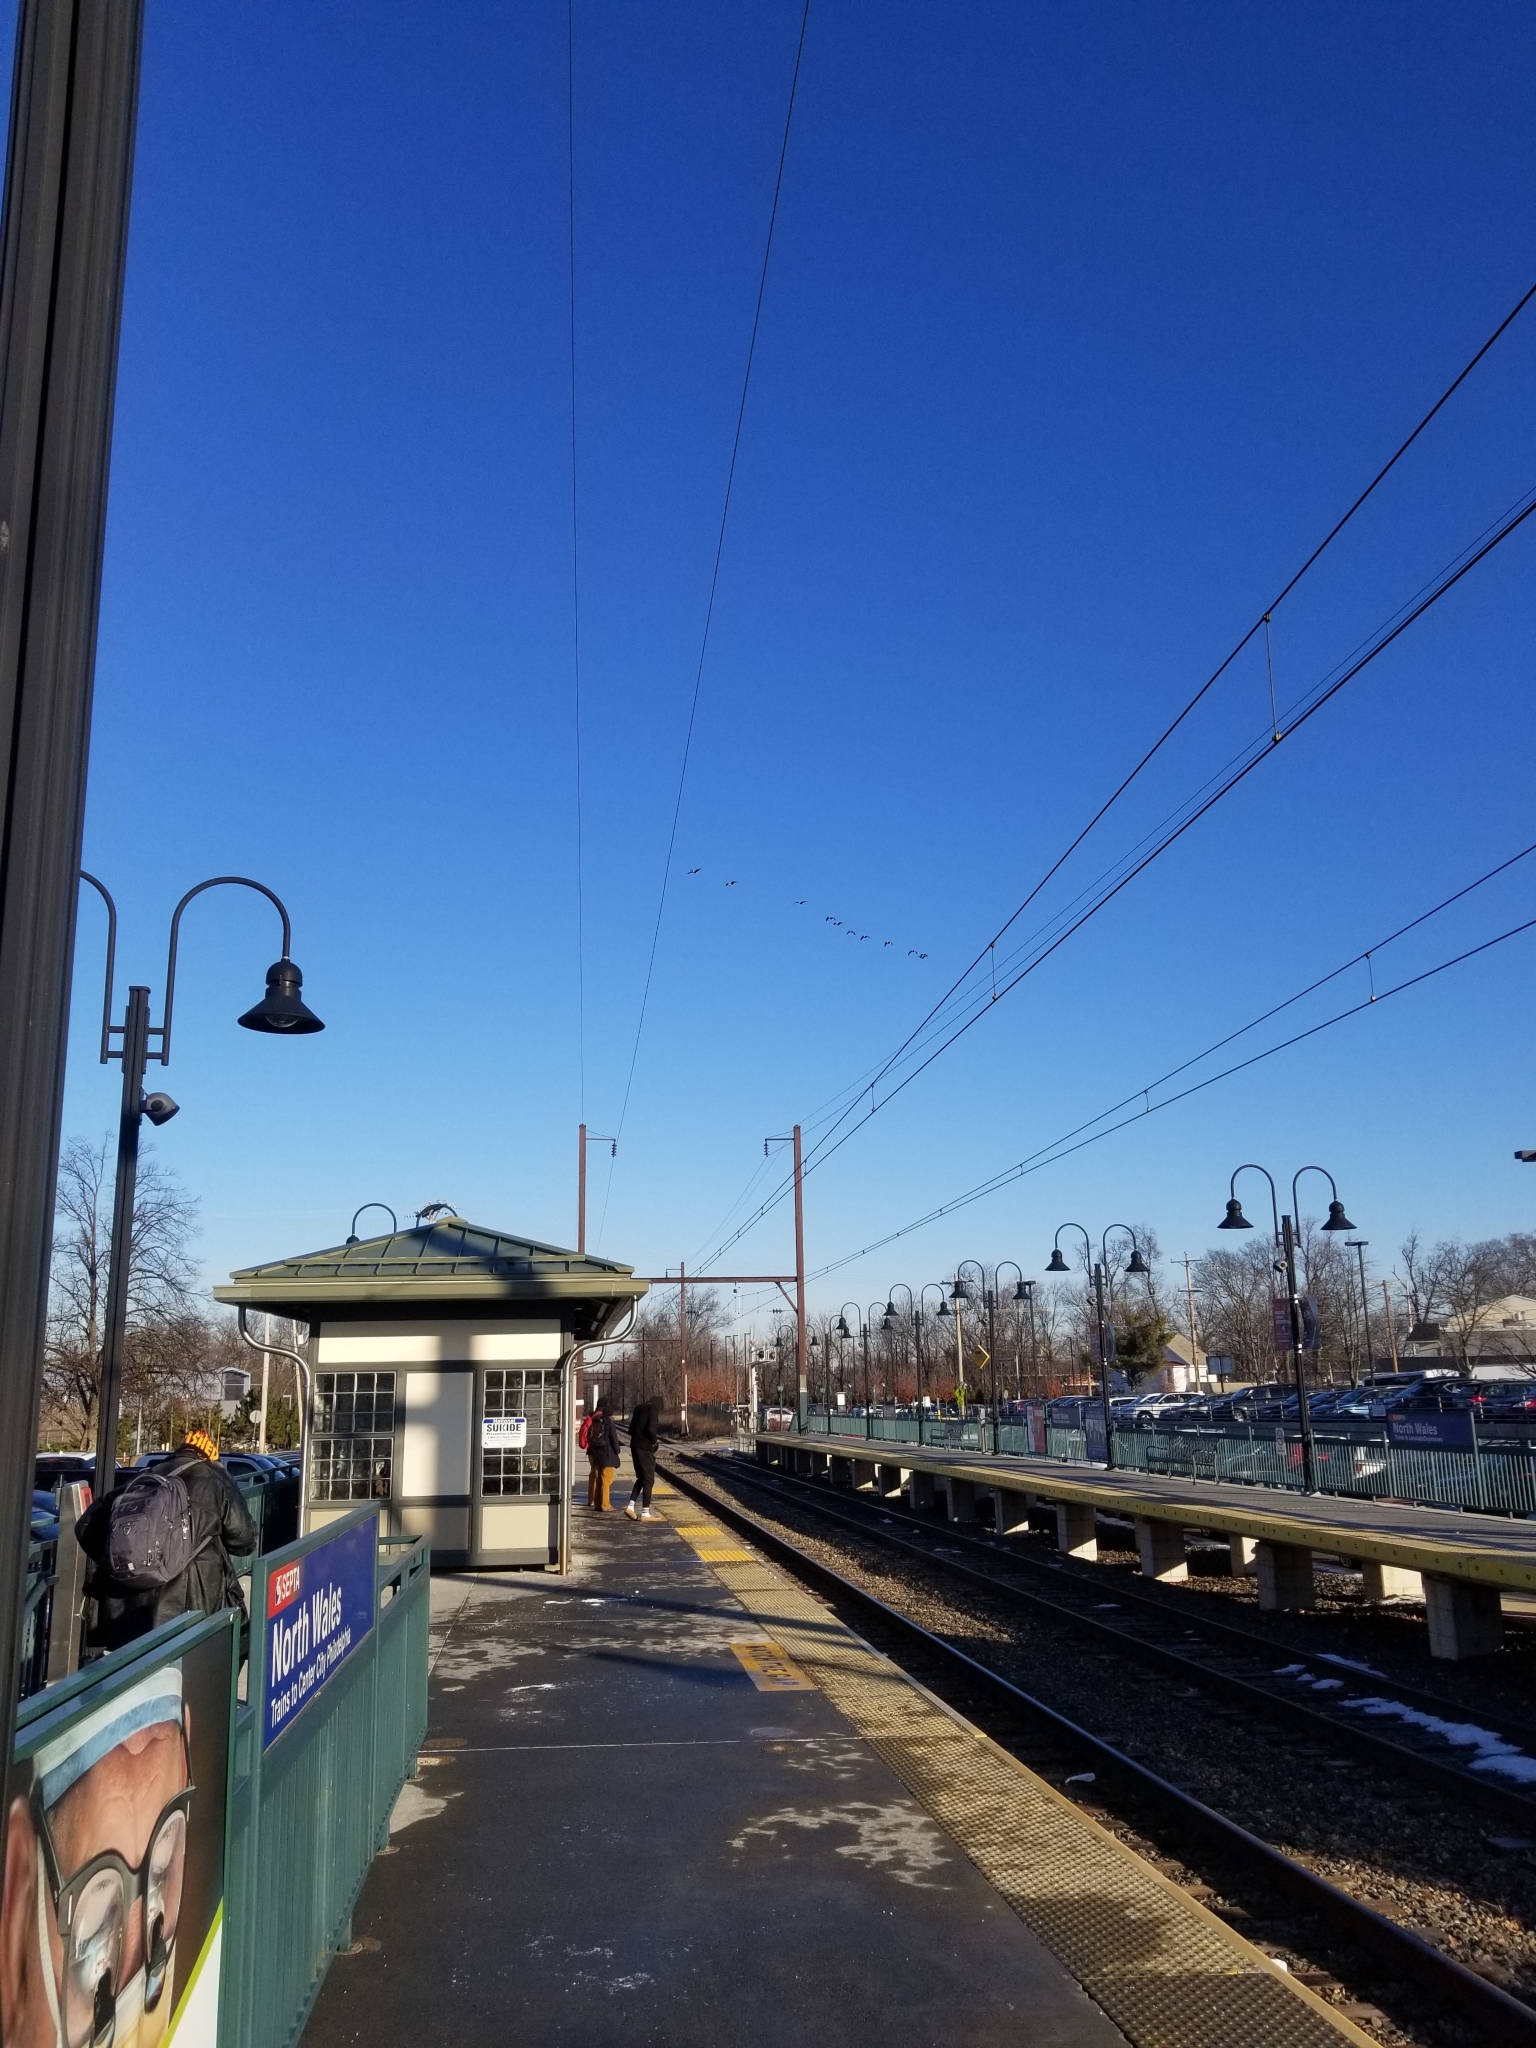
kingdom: Animalia
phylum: Chordata
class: Aves
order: Anseriformes
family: Anatidae
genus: Branta
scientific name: Branta canadensis
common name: Canada goose
